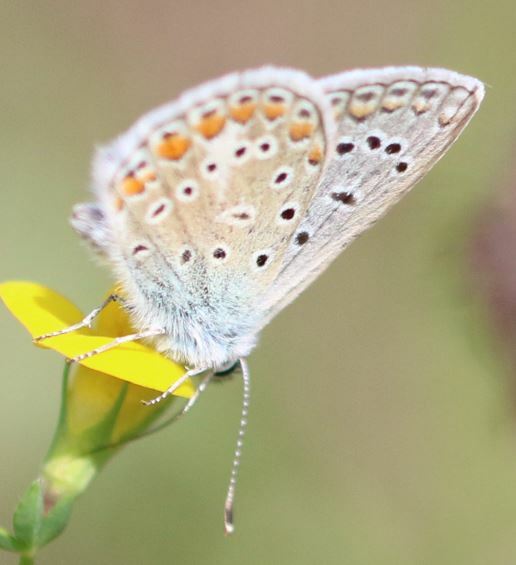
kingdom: Animalia
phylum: Arthropoda
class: Insecta
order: Lepidoptera
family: Lycaenidae
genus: Polyommatus
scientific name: Polyommatus icarus
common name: Common blue
